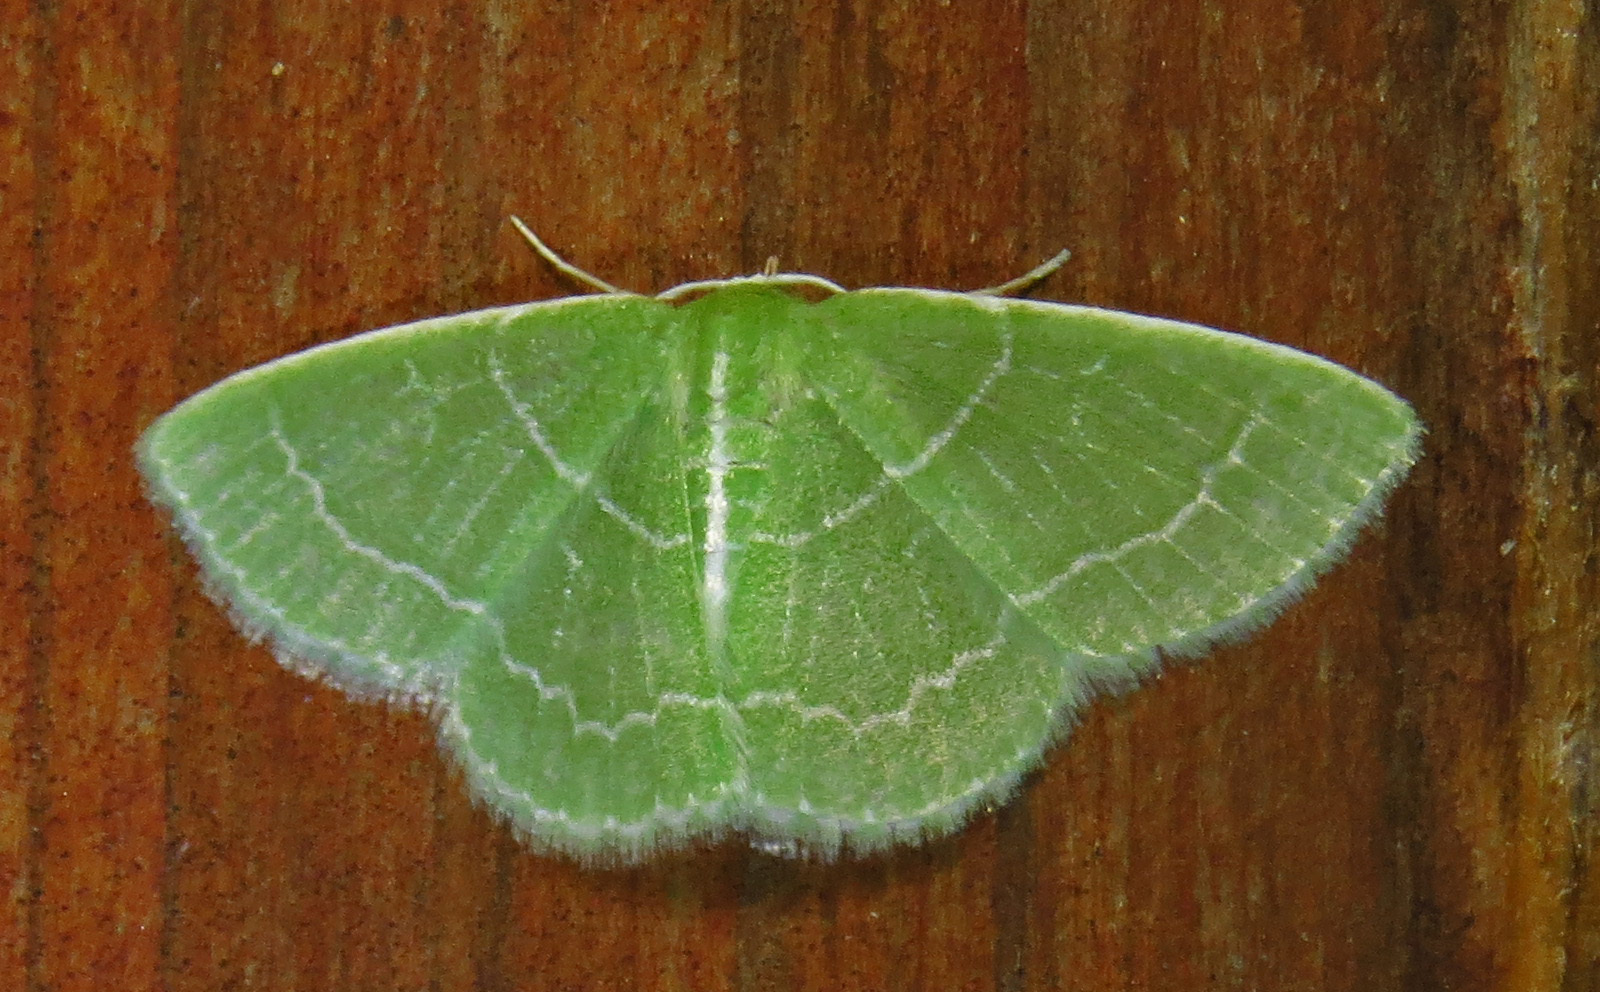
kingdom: Animalia
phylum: Arthropoda
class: Insecta
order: Lepidoptera
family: Geometridae
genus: Synchlora
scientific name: Synchlora aerata
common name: Wavy-lined emerald
